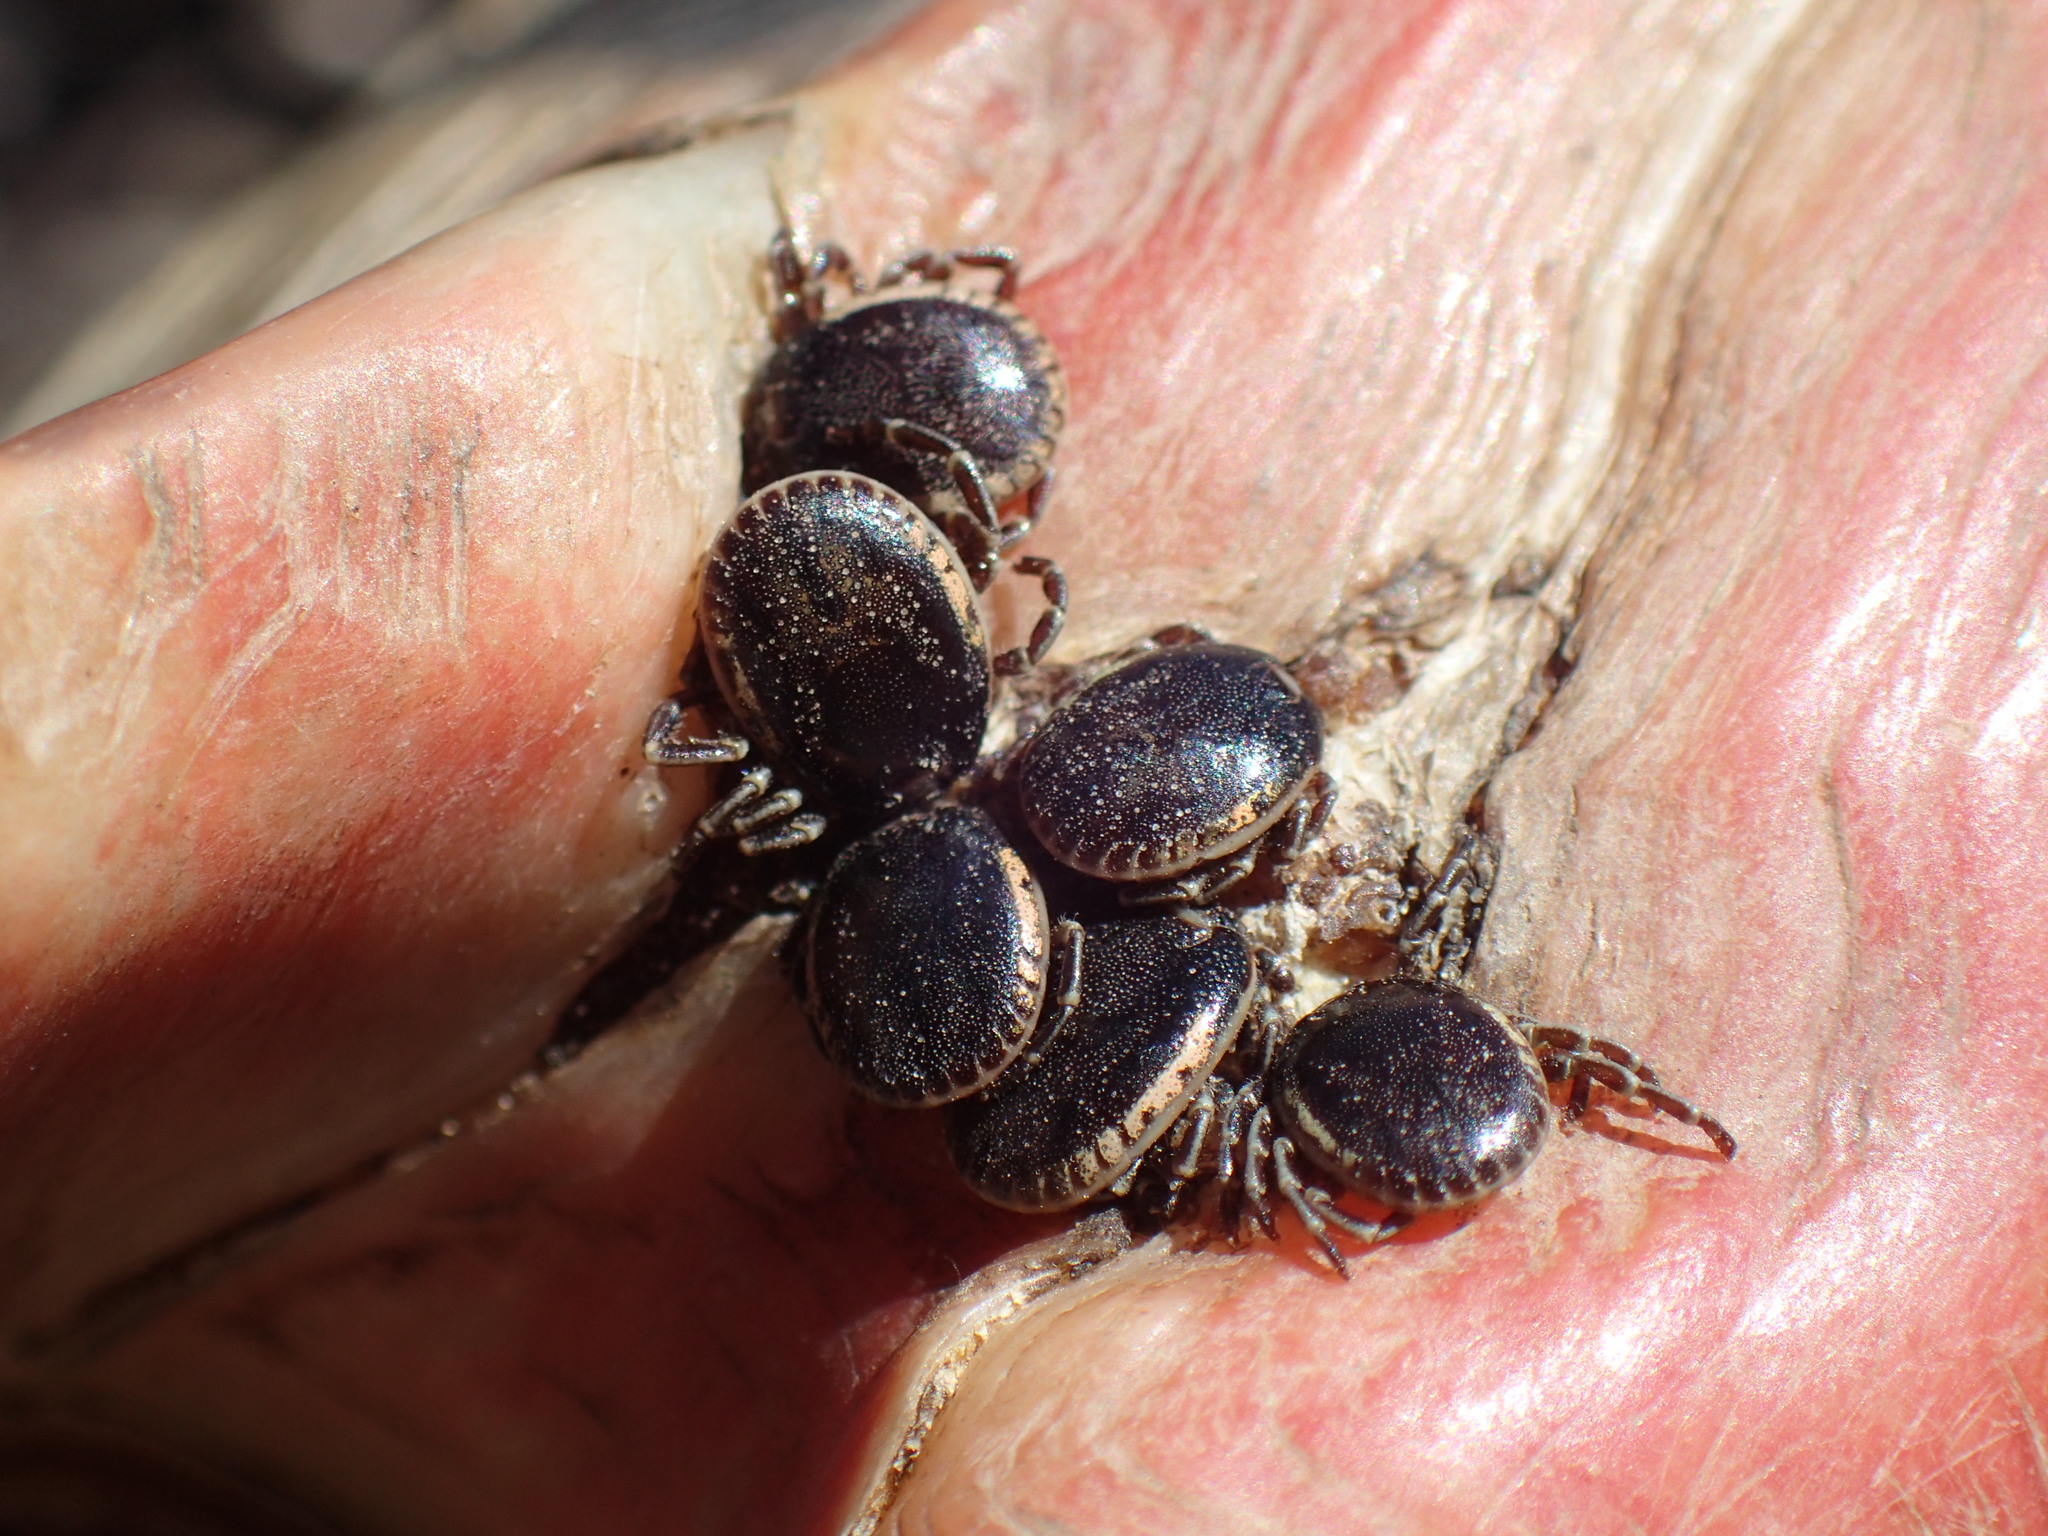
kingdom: Animalia
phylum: Arthropoda
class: Arachnida
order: Ixodida
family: Ixodidae
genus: Amblyomma
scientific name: Amblyomma sylvaticum
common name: Cape tortoise tick
